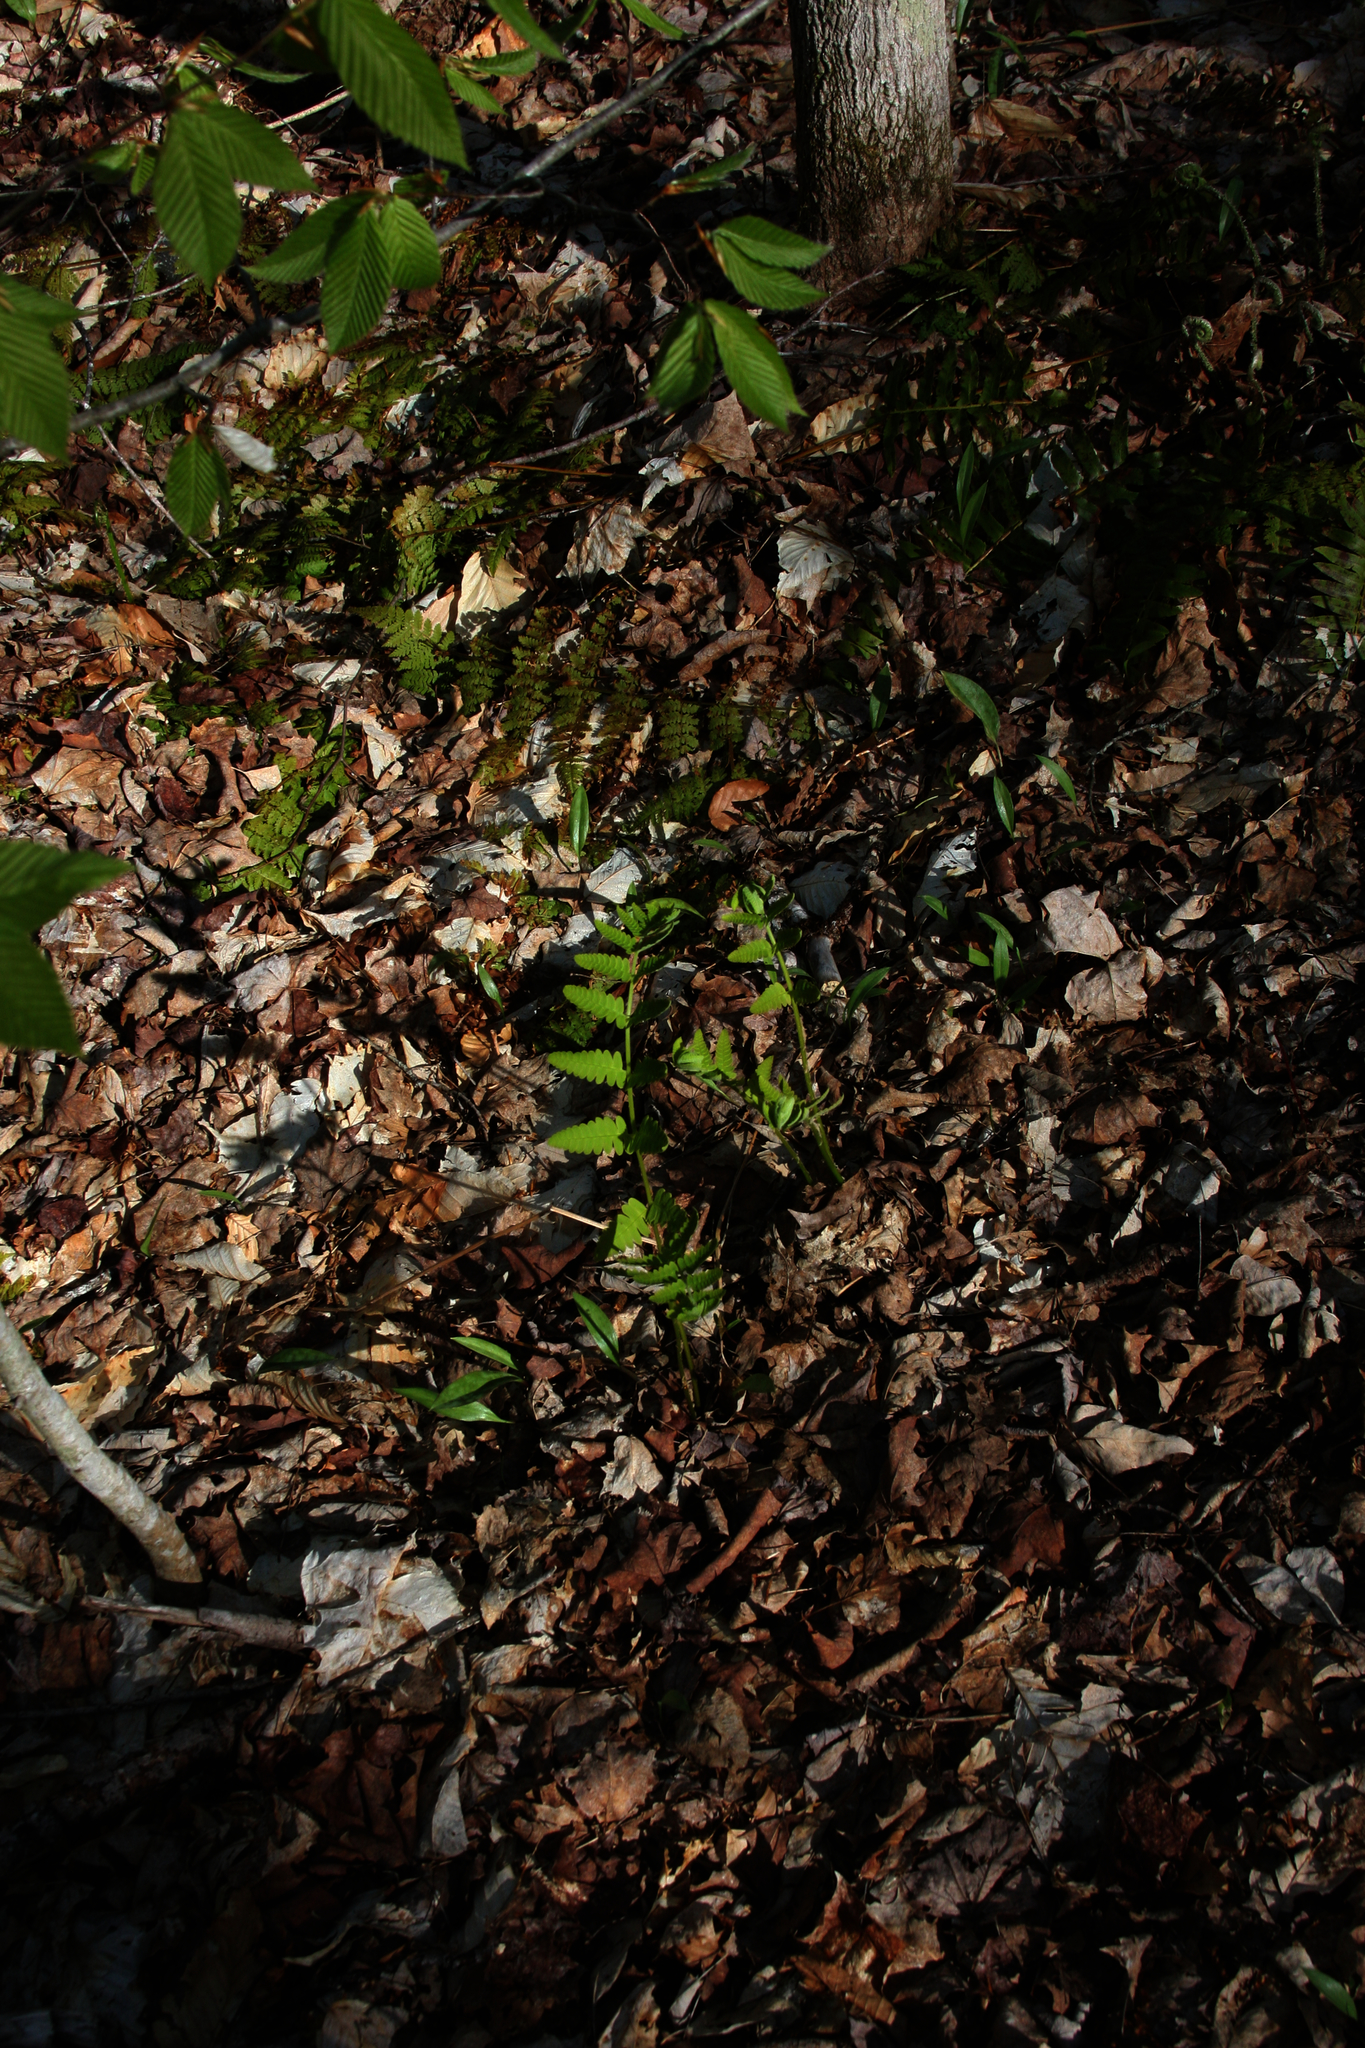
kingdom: Plantae
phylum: Tracheophyta
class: Polypodiopsida
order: Osmundales
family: Osmundaceae
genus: Claytosmunda
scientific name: Claytosmunda claytoniana
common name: Clayton's fern
